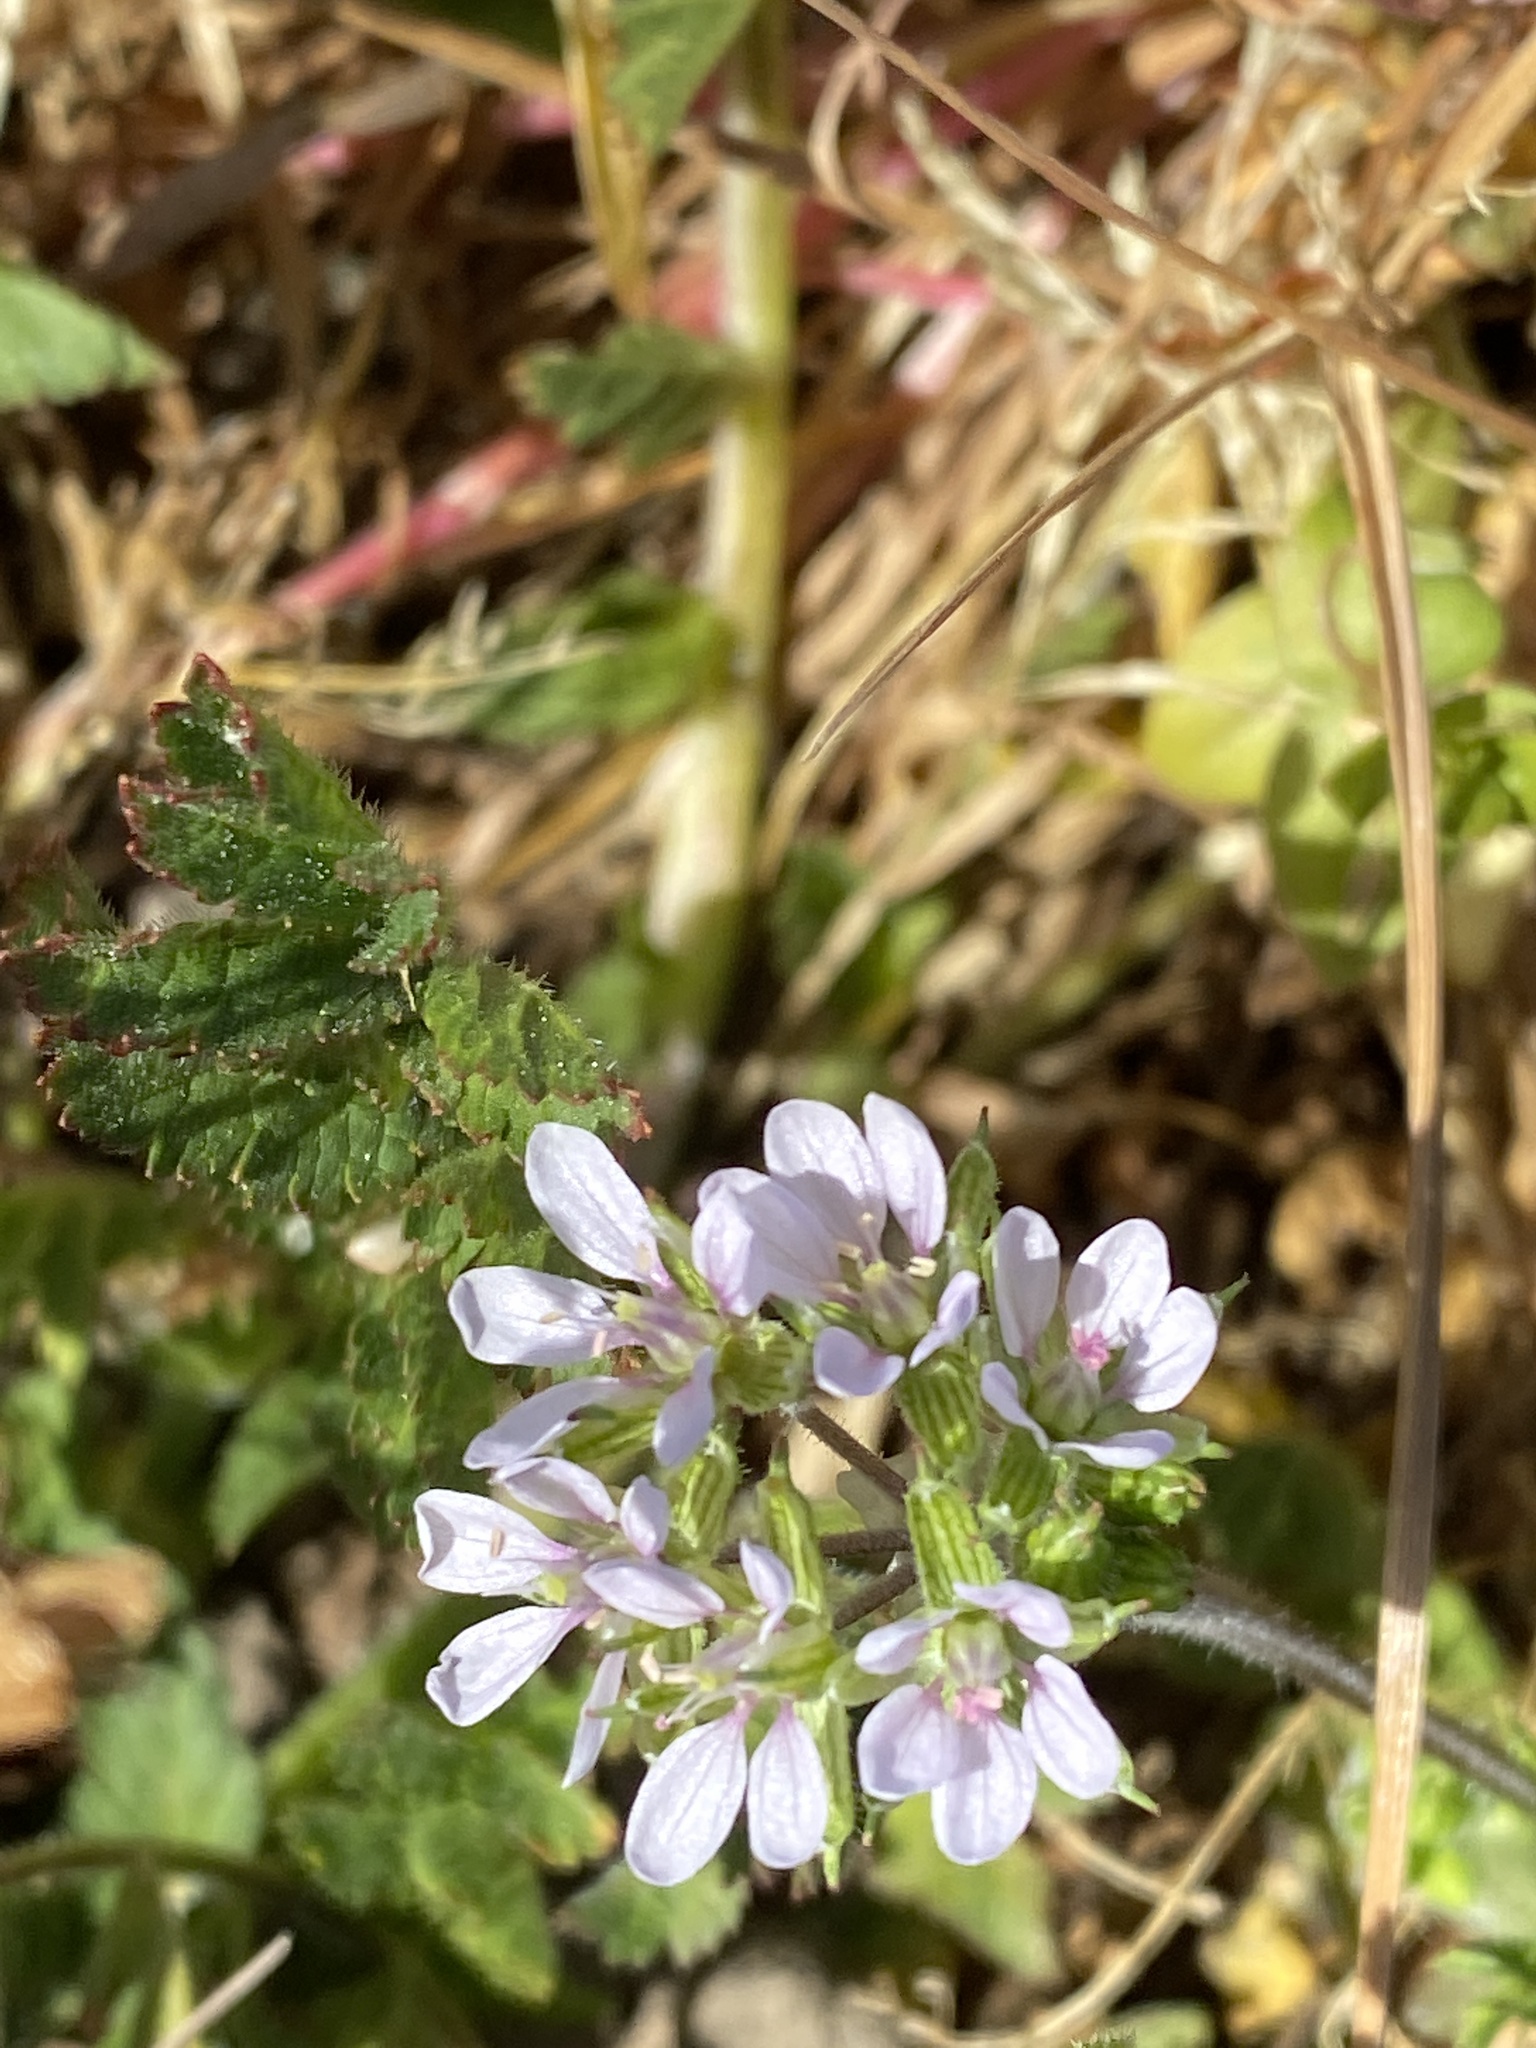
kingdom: Plantae
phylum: Tracheophyta
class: Magnoliopsida
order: Geraniales
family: Geraniaceae
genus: Erodium
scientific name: Erodium moschatum
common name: Musk stork's-bill
